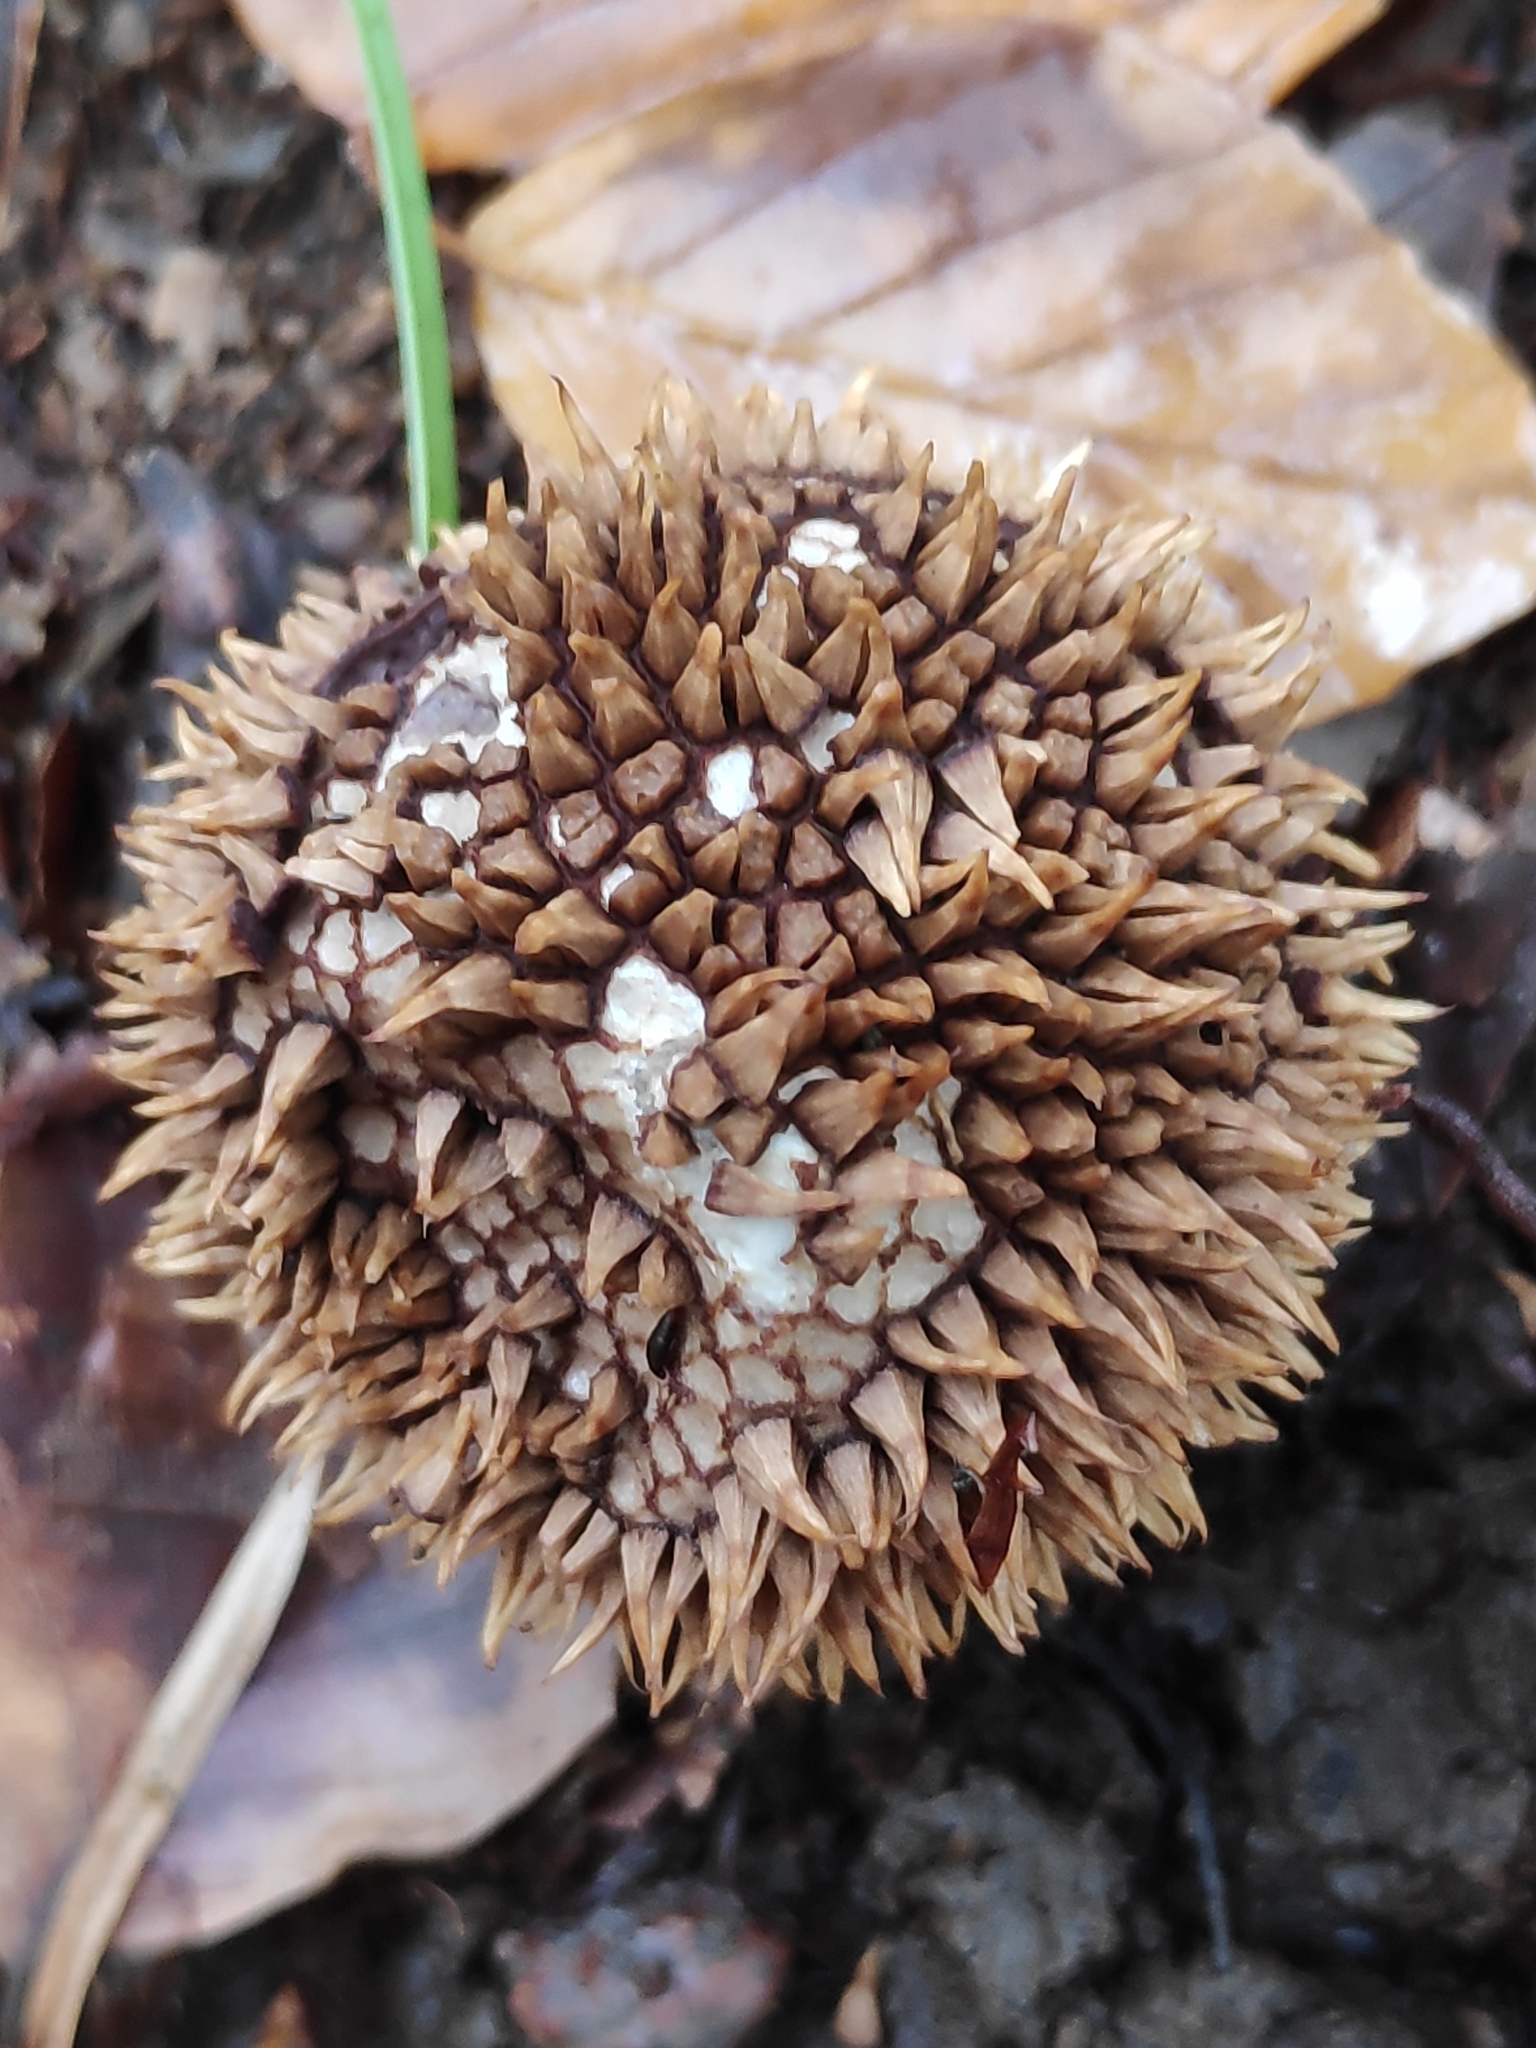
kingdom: Fungi
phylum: Basidiomycota
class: Agaricomycetes
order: Agaricales
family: Lycoperdaceae
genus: Lycoperdon
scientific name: Lycoperdon echinatum
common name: Hedgehog puffball
